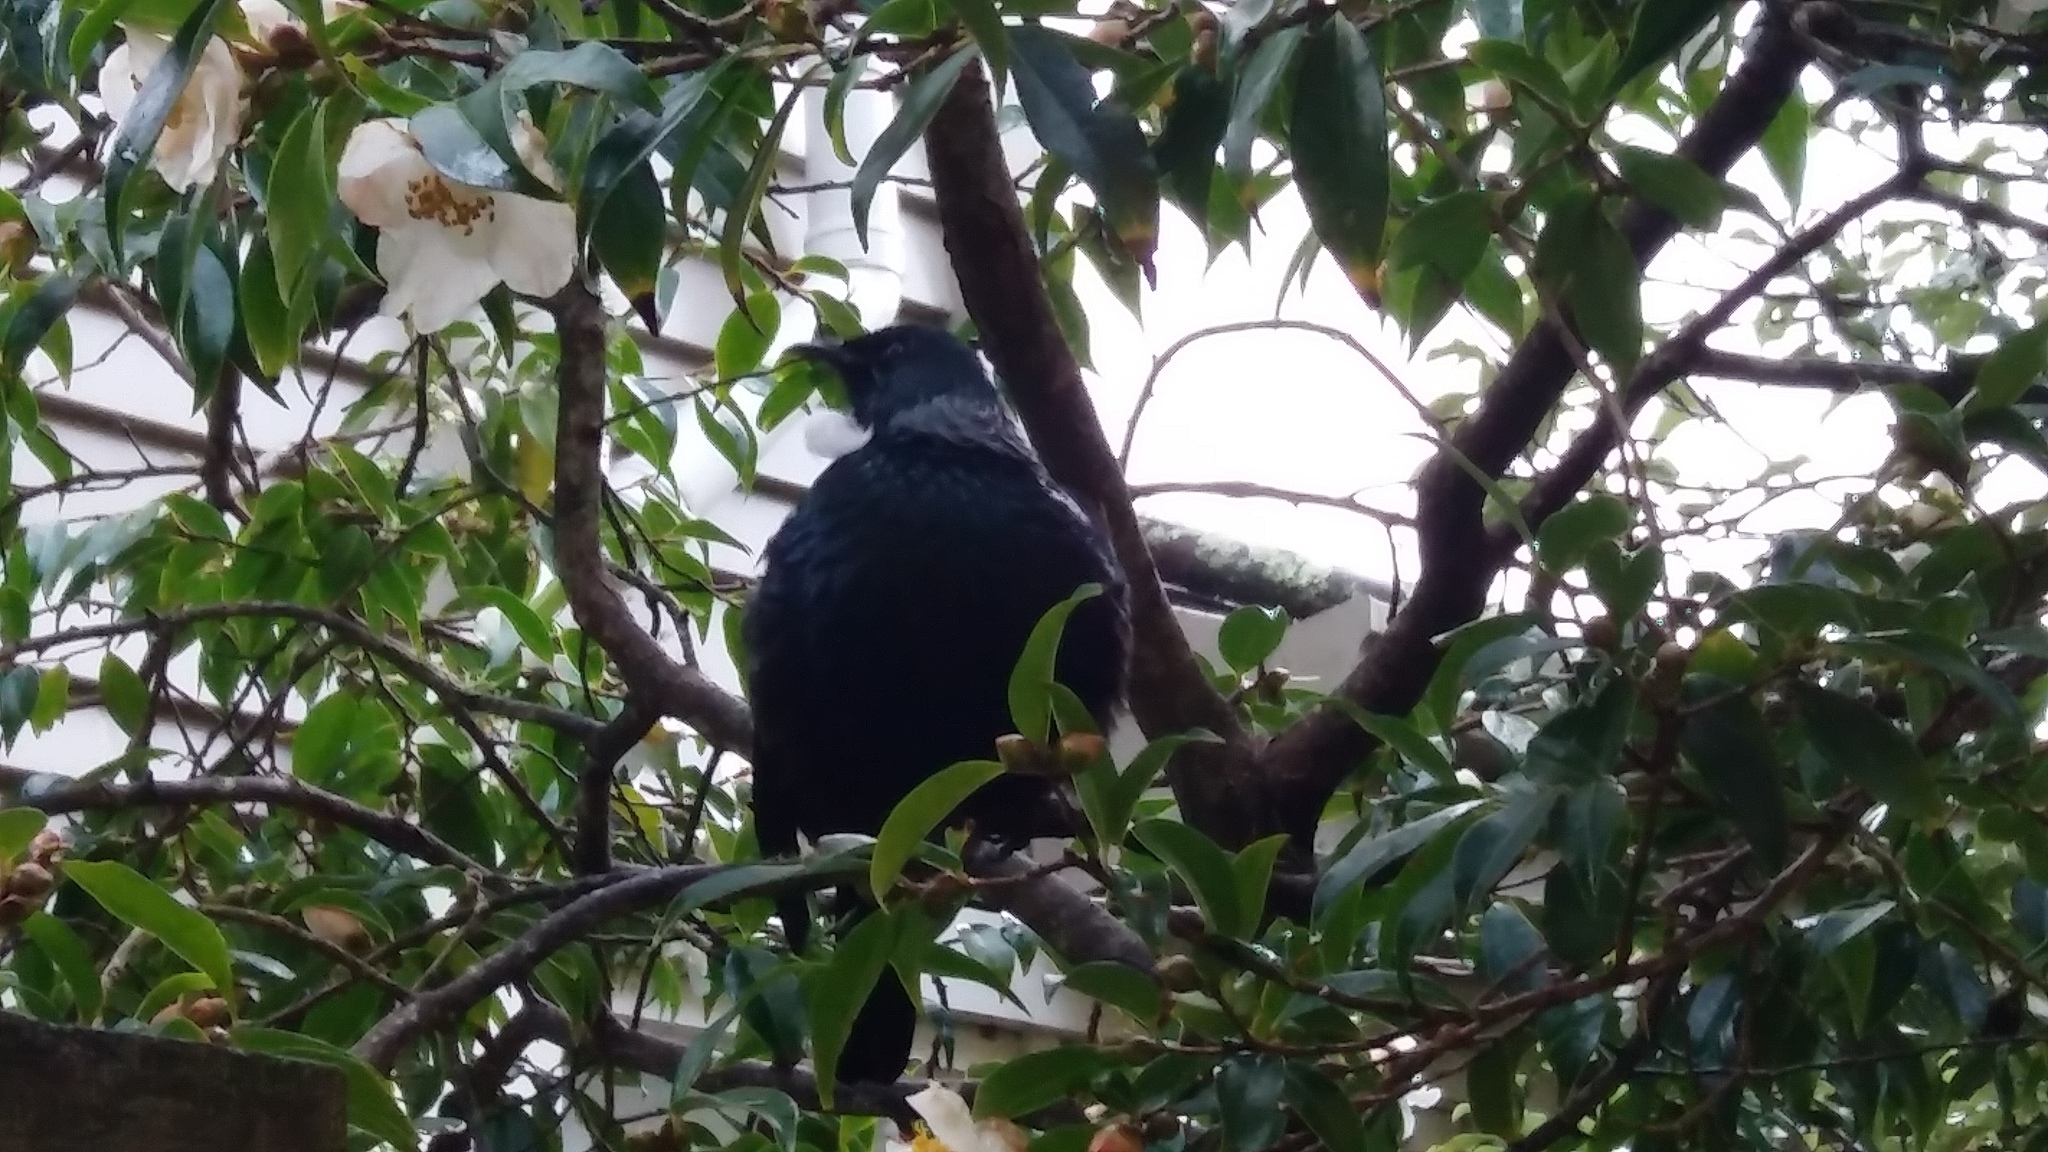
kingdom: Animalia
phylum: Chordata
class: Aves
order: Passeriformes
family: Meliphagidae
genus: Prosthemadera
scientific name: Prosthemadera novaeseelandiae
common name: Tui
